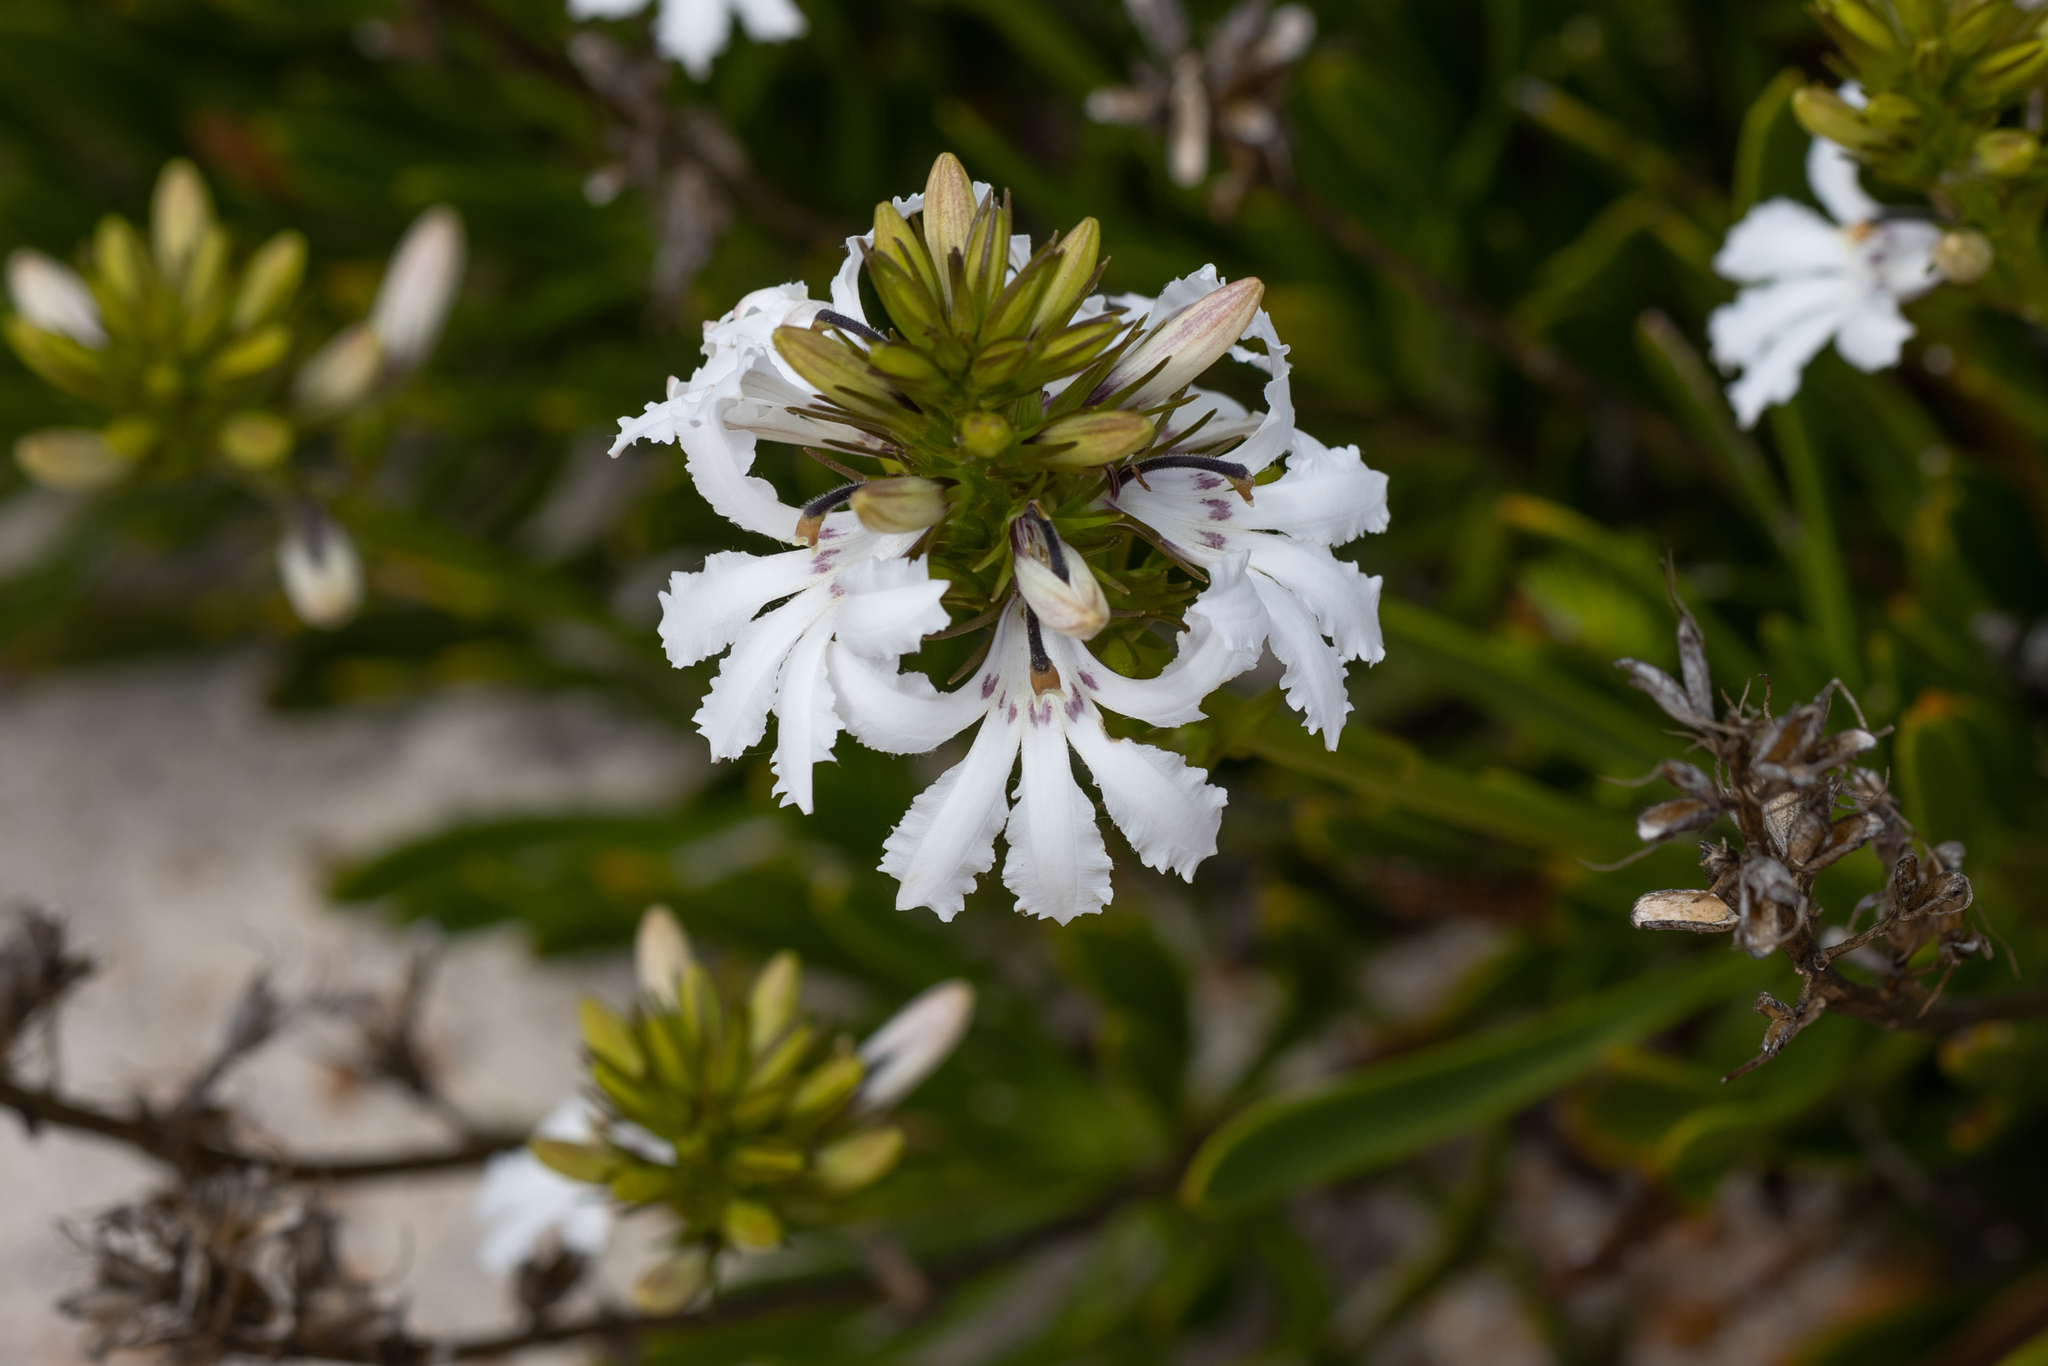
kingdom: Plantae
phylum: Tracheophyta
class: Magnoliopsida
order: Asterales
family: Goodeniaceae
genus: Goodenia
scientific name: Goodenia scapigera
